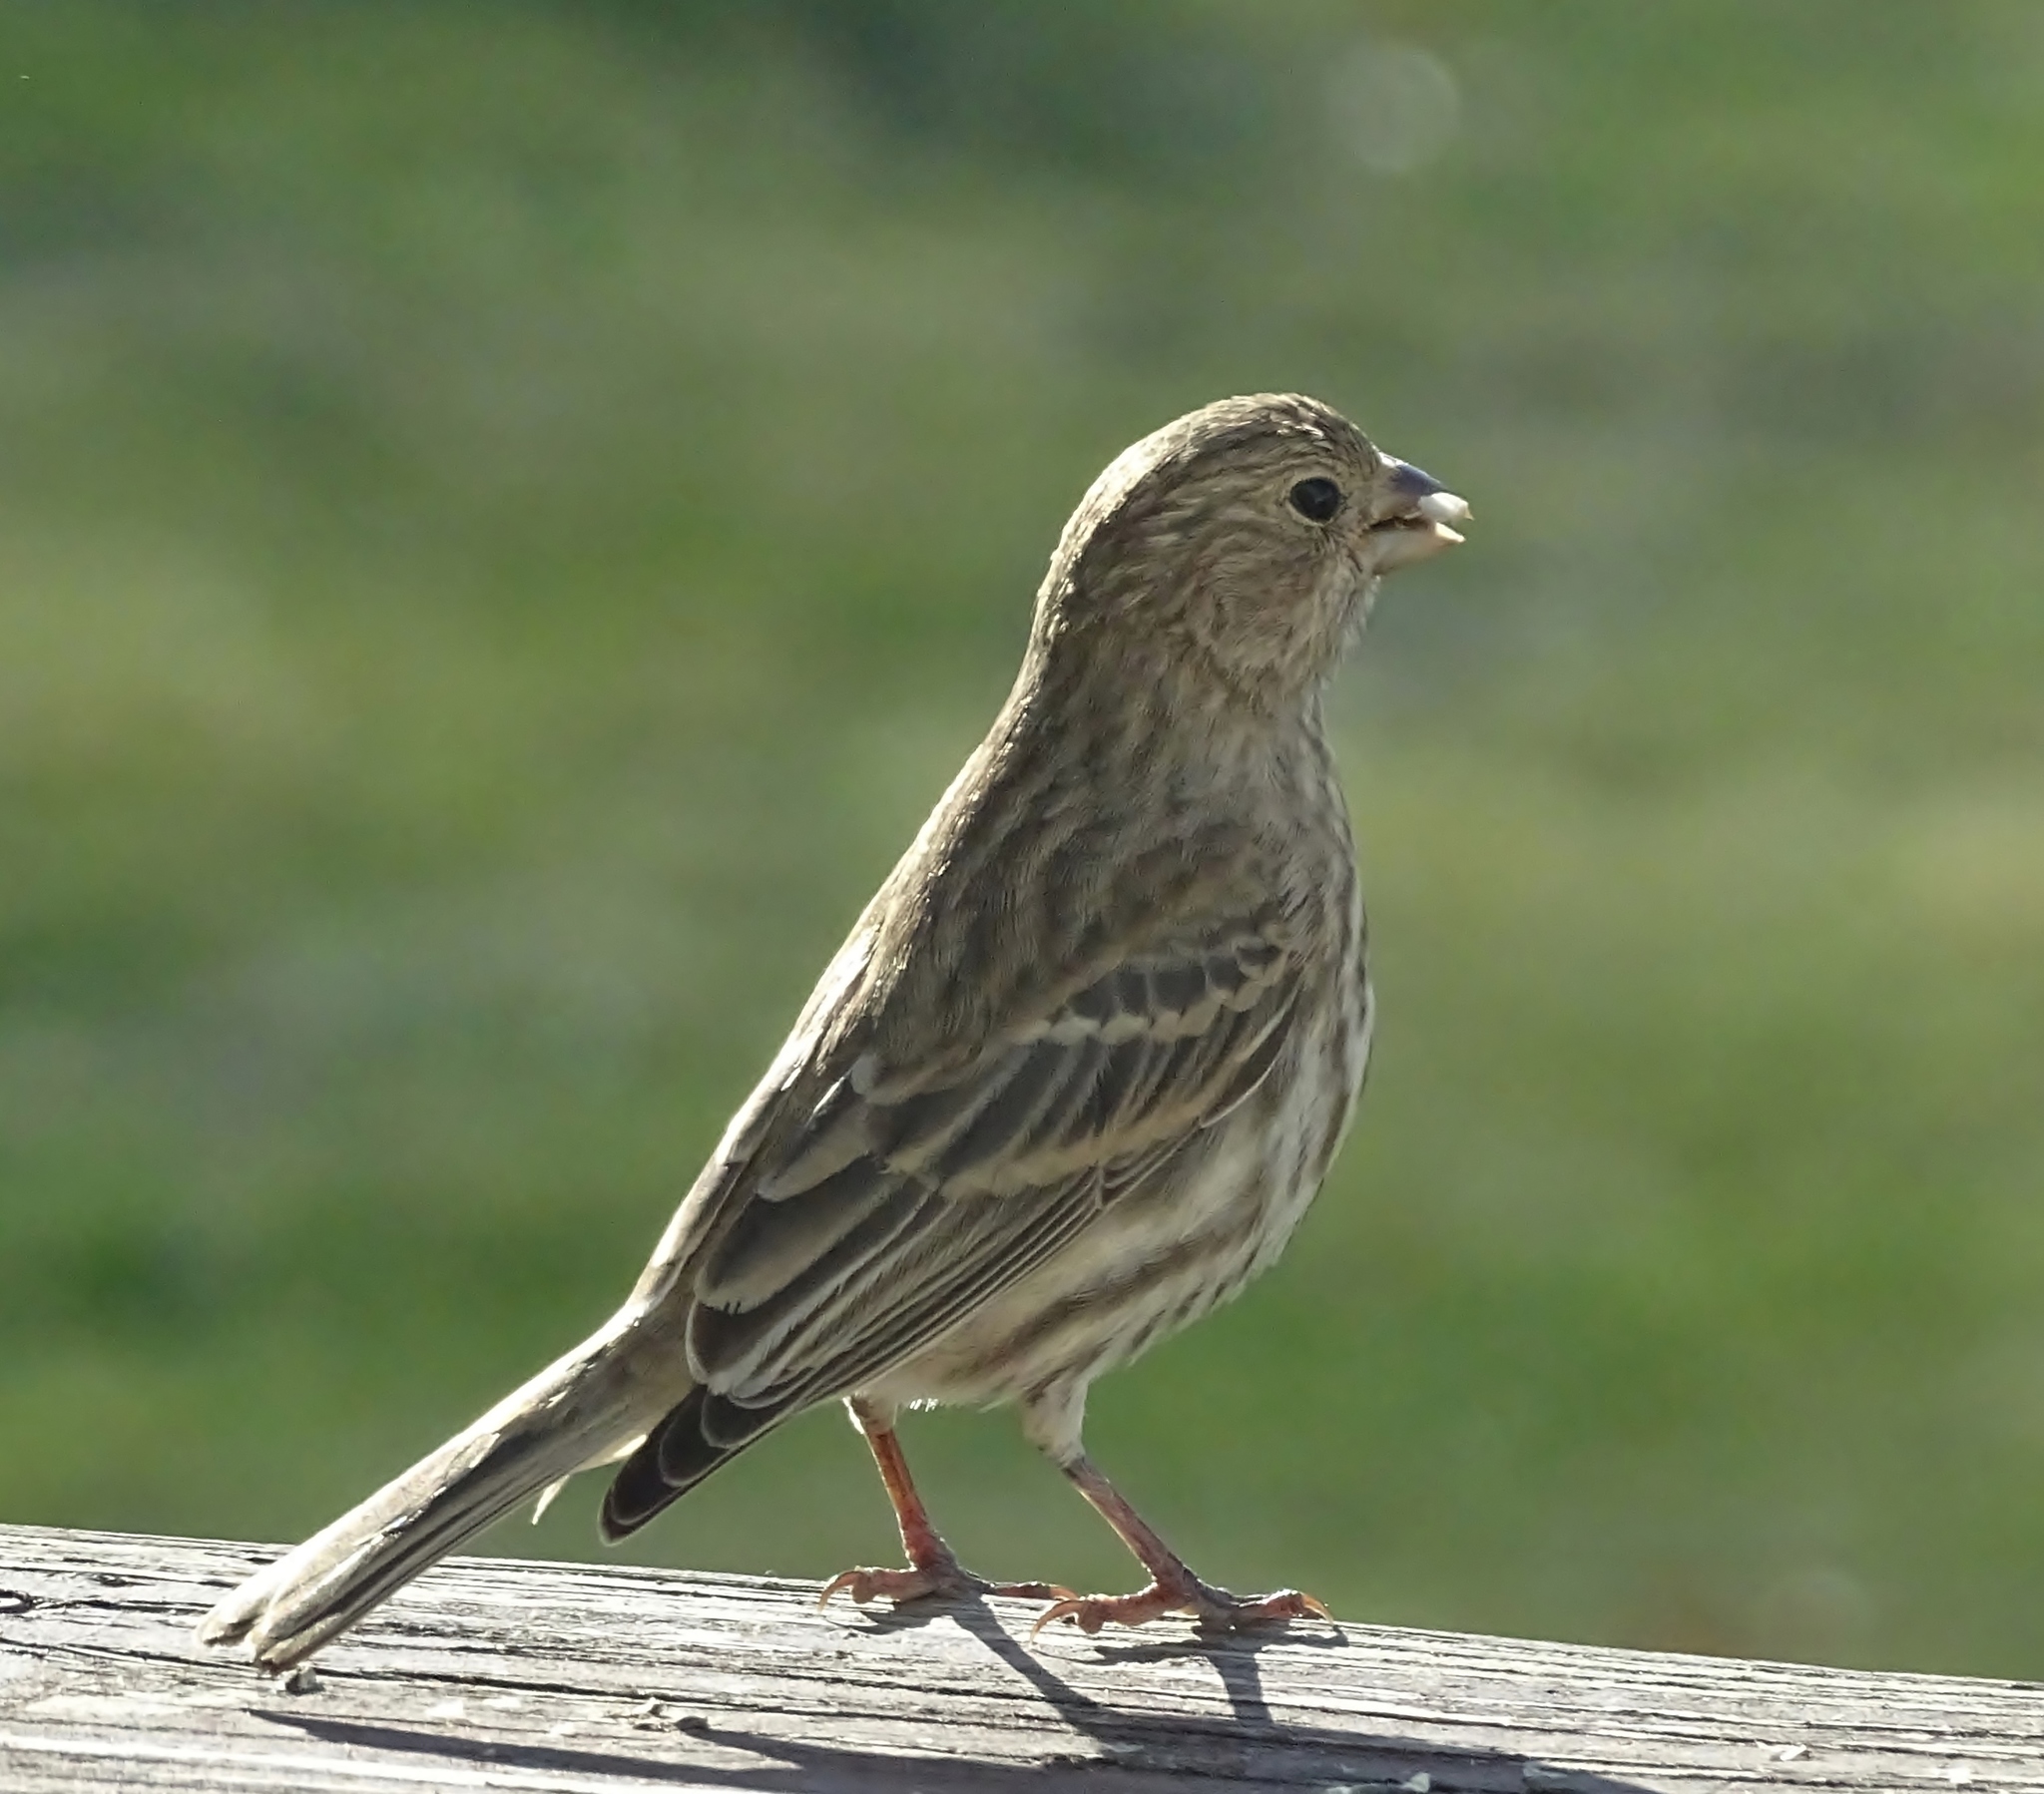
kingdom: Animalia
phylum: Chordata
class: Aves
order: Passeriformes
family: Fringillidae
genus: Haemorhous
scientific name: Haemorhous mexicanus
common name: House finch
